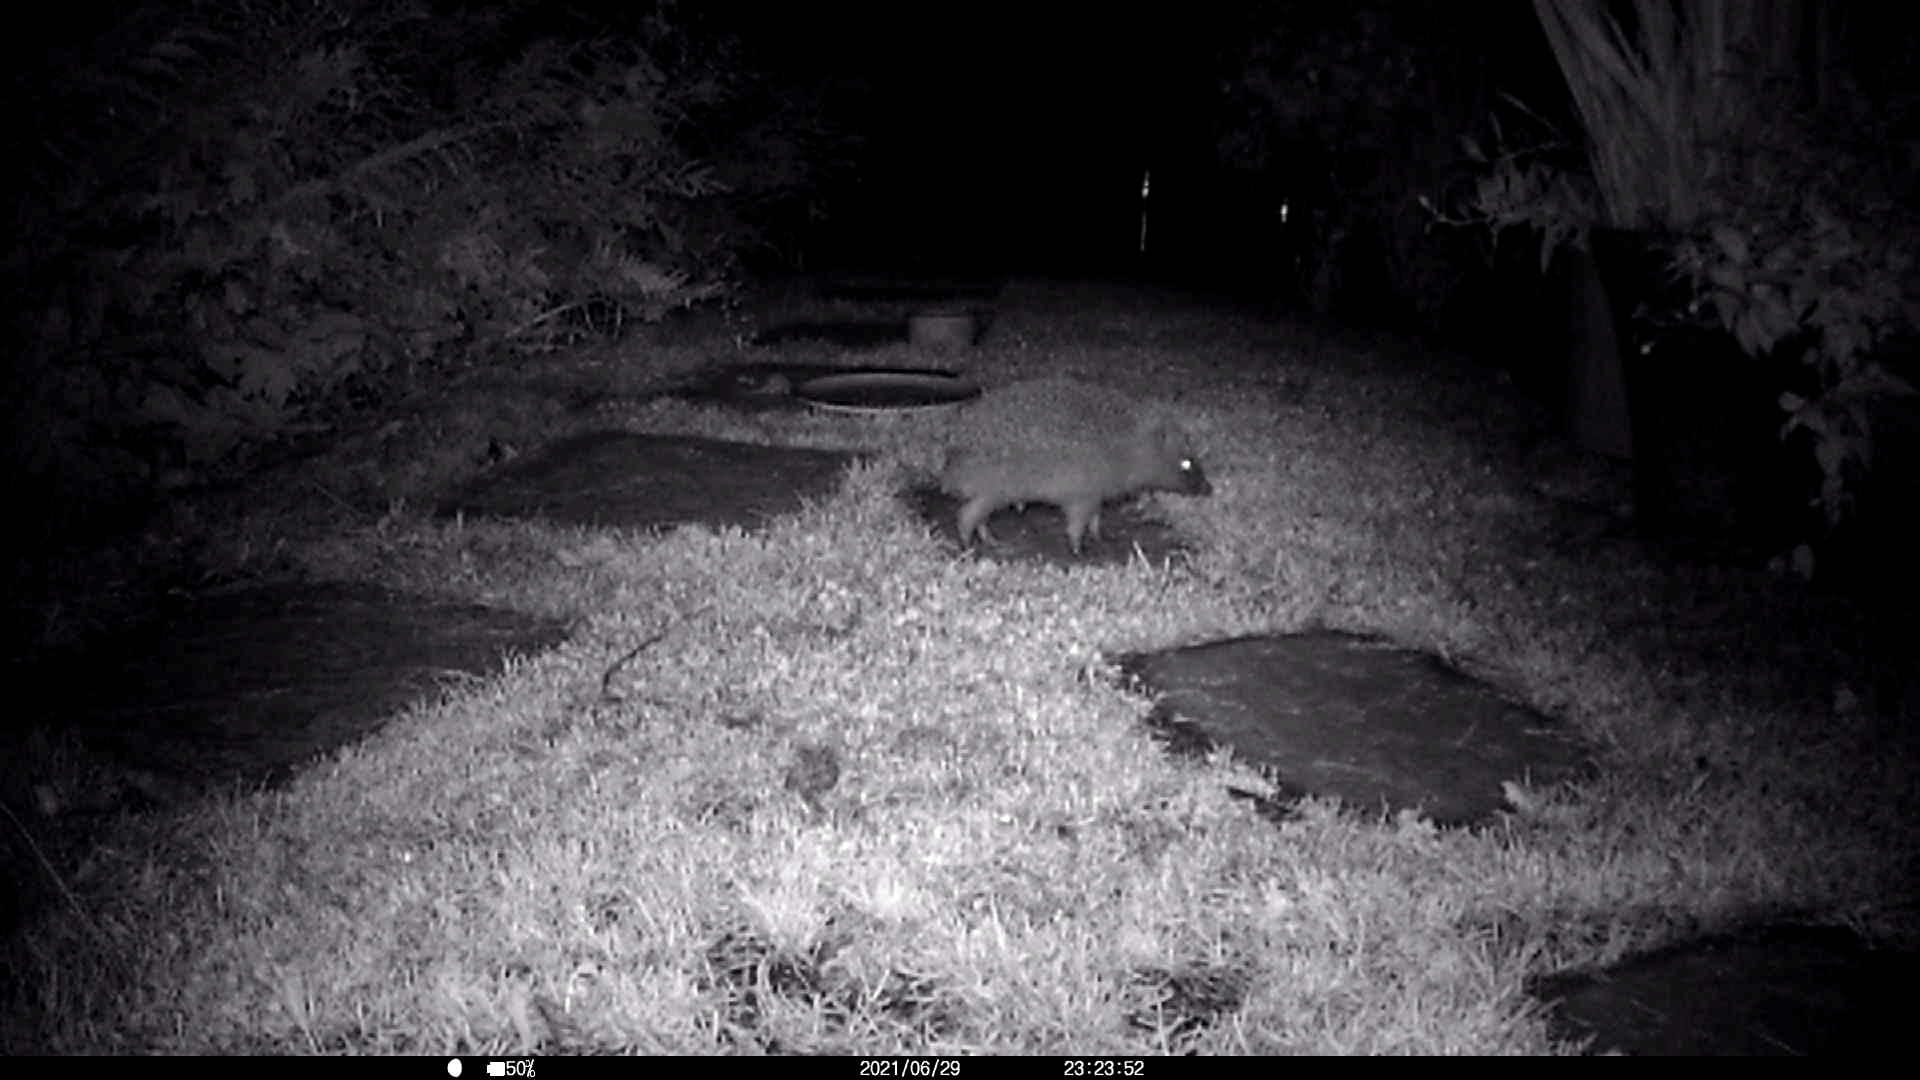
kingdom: Animalia
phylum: Chordata
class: Mammalia
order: Erinaceomorpha
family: Erinaceidae
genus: Erinaceus
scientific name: Erinaceus europaeus
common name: West european hedgehog
